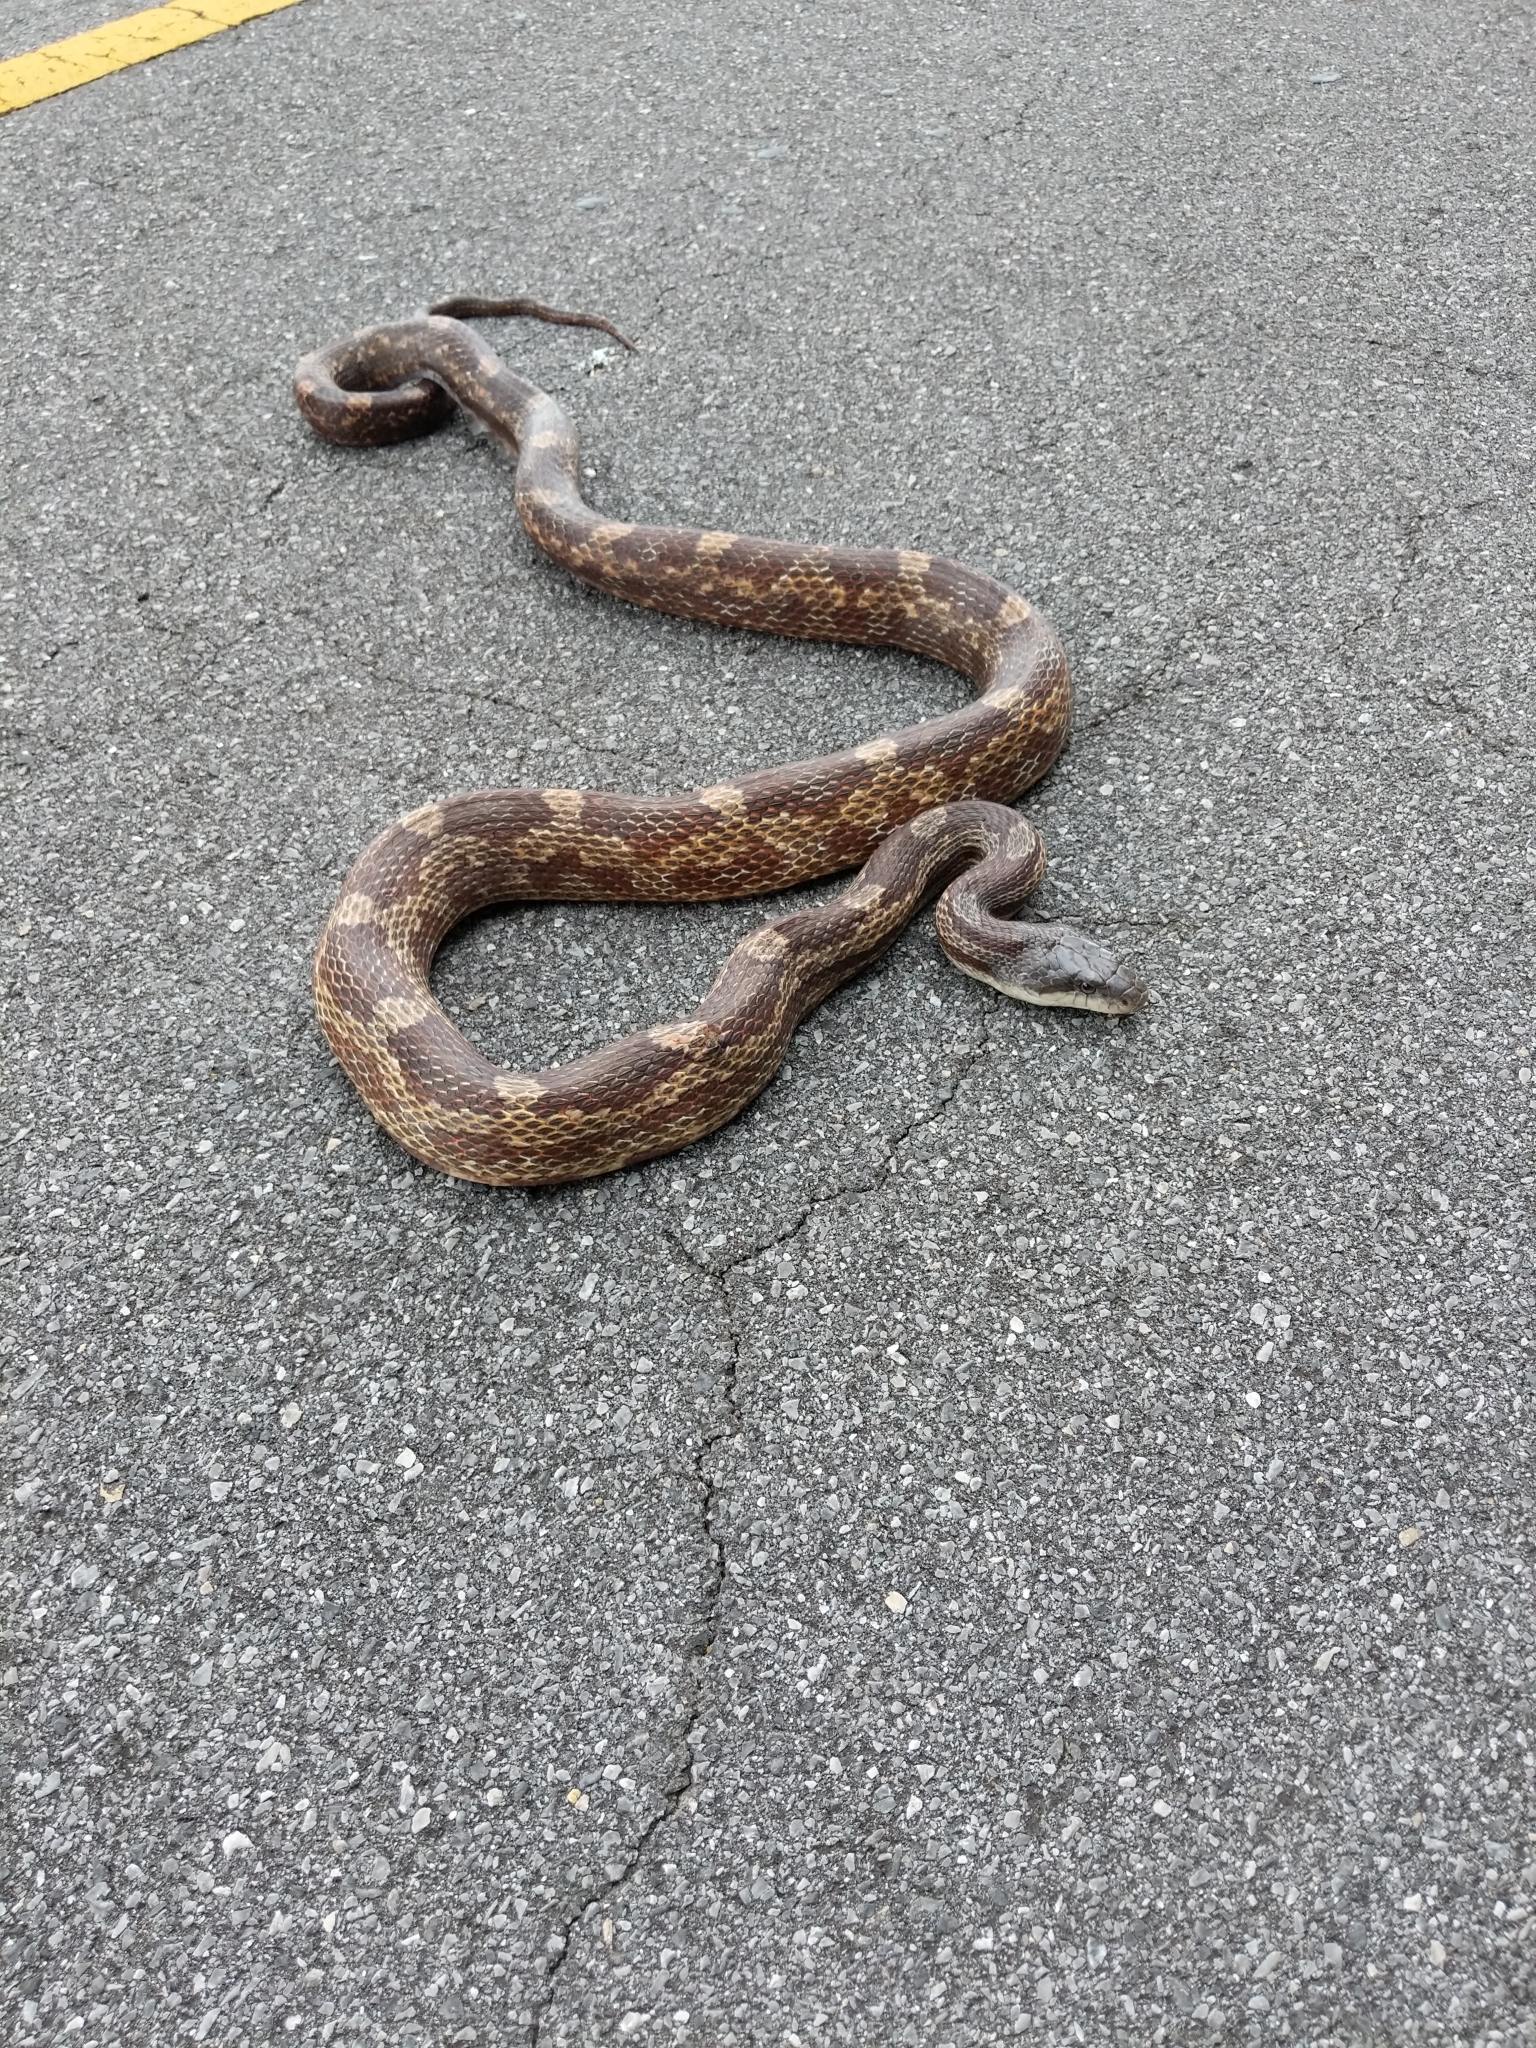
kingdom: Animalia
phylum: Chordata
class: Squamata
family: Colubridae
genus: Pantherophis
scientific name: Pantherophis spiloides
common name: Gray rat snake
